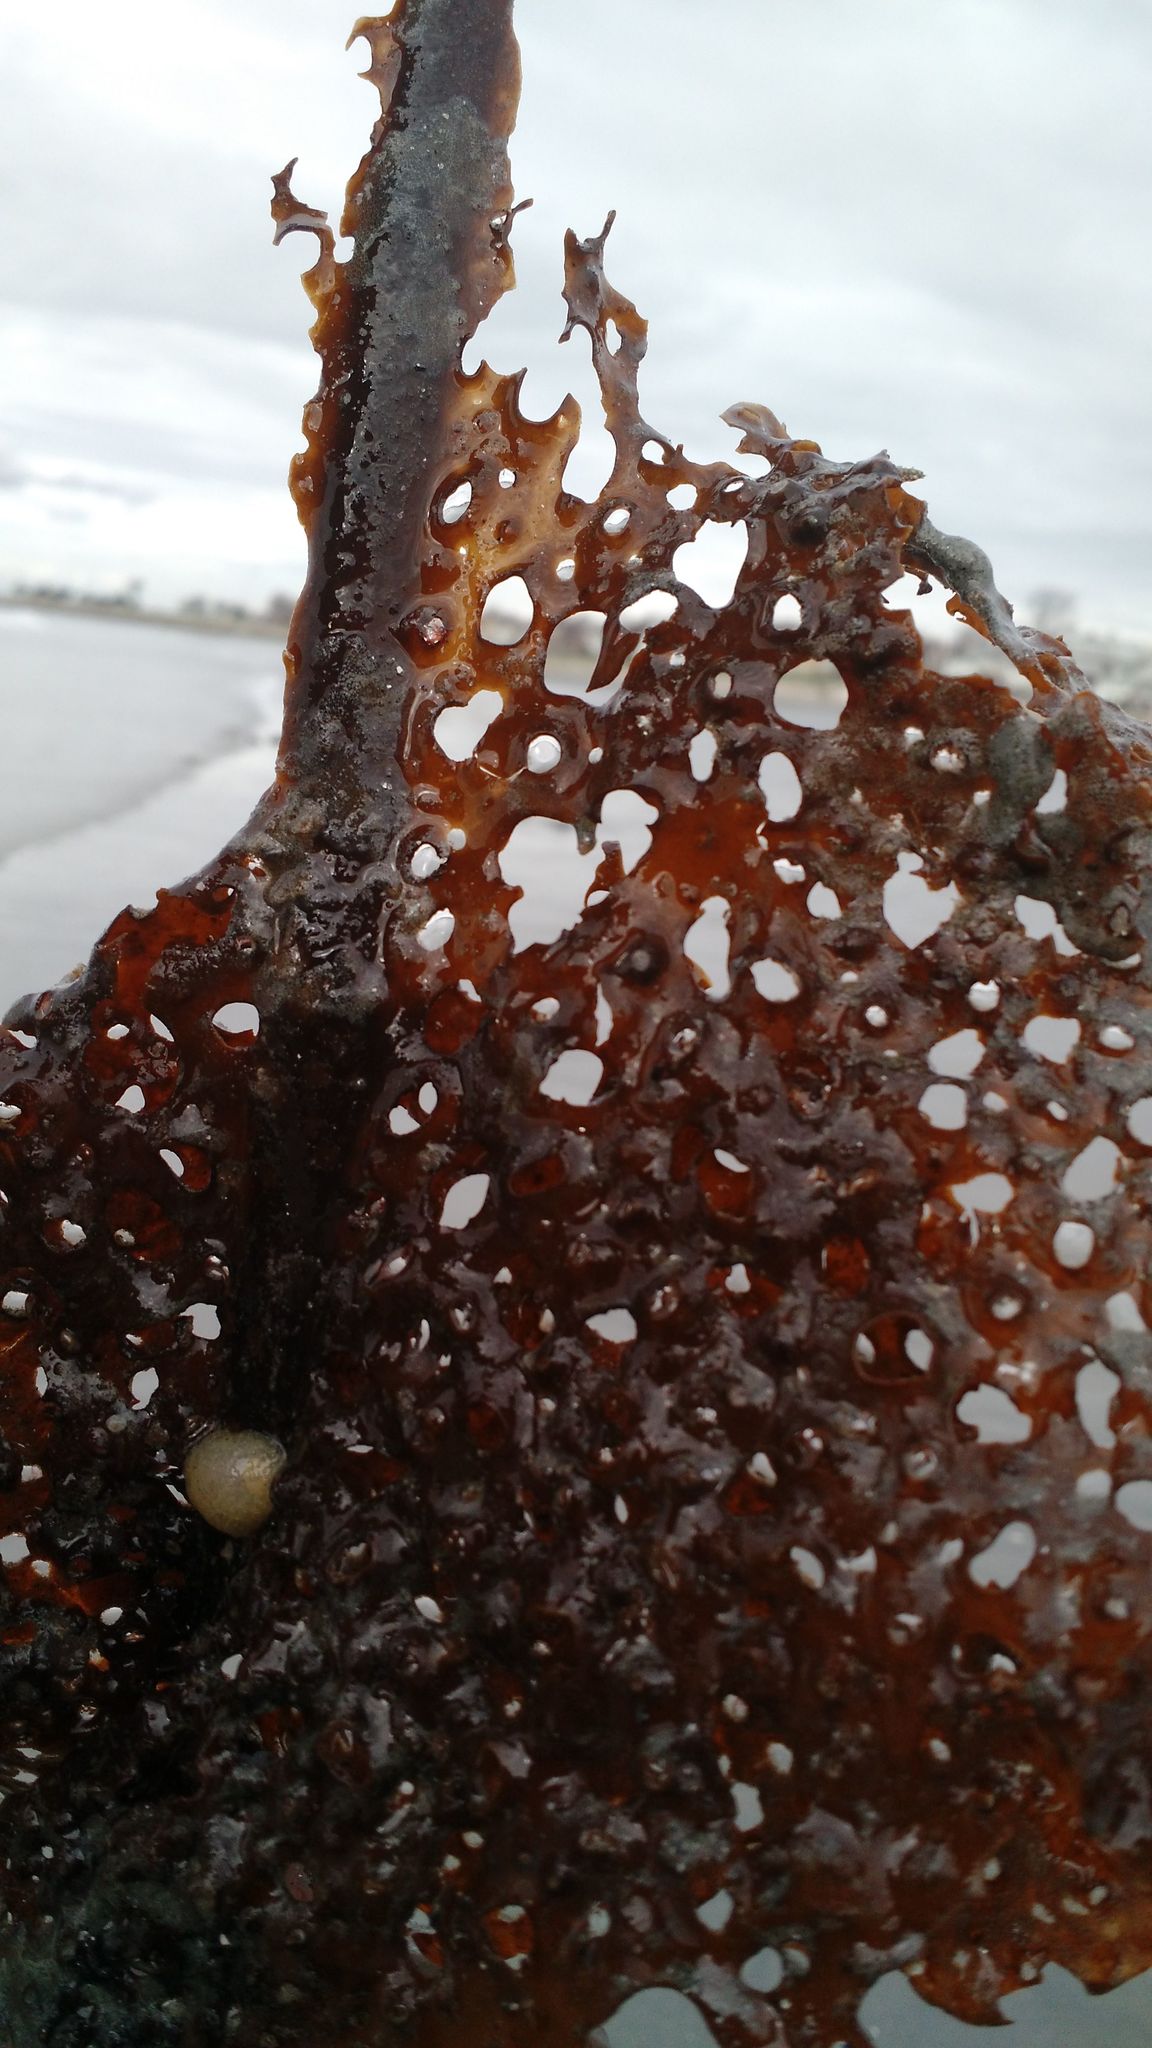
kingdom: Chromista
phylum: Ochrophyta
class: Phaeophyceae
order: Laminariales
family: Costariaceae
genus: Agarum
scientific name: Agarum clathratum
